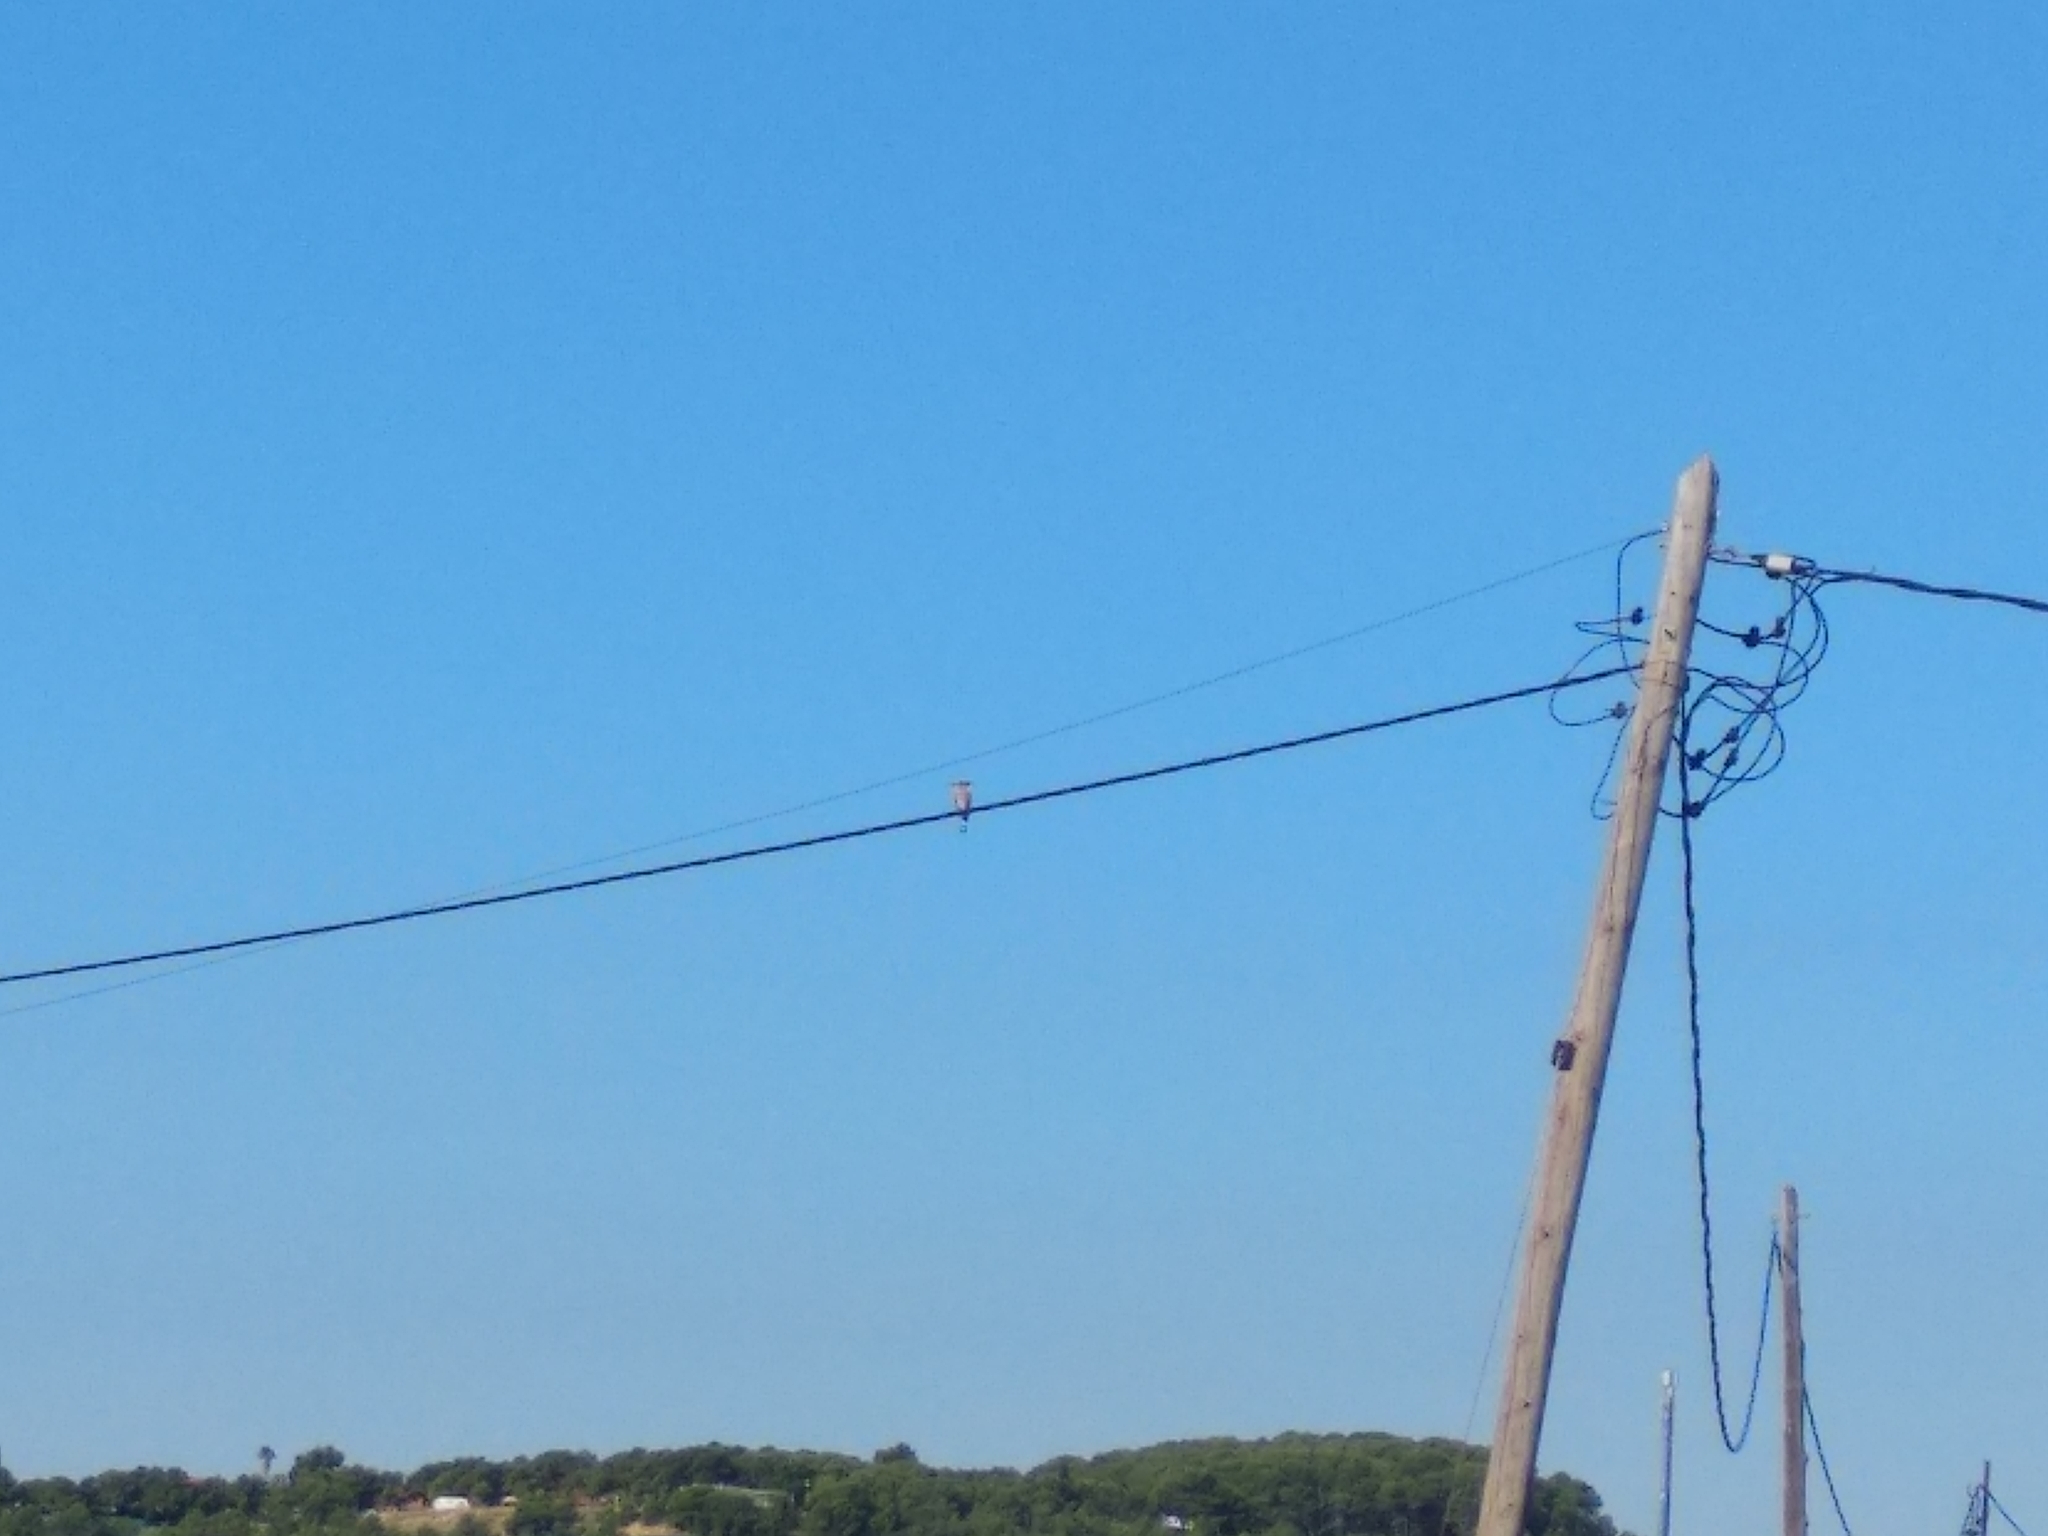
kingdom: Animalia
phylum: Chordata
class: Aves
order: Bucerotiformes
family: Upupidae
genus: Upupa
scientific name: Upupa epops
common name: Eurasian hoopoe
